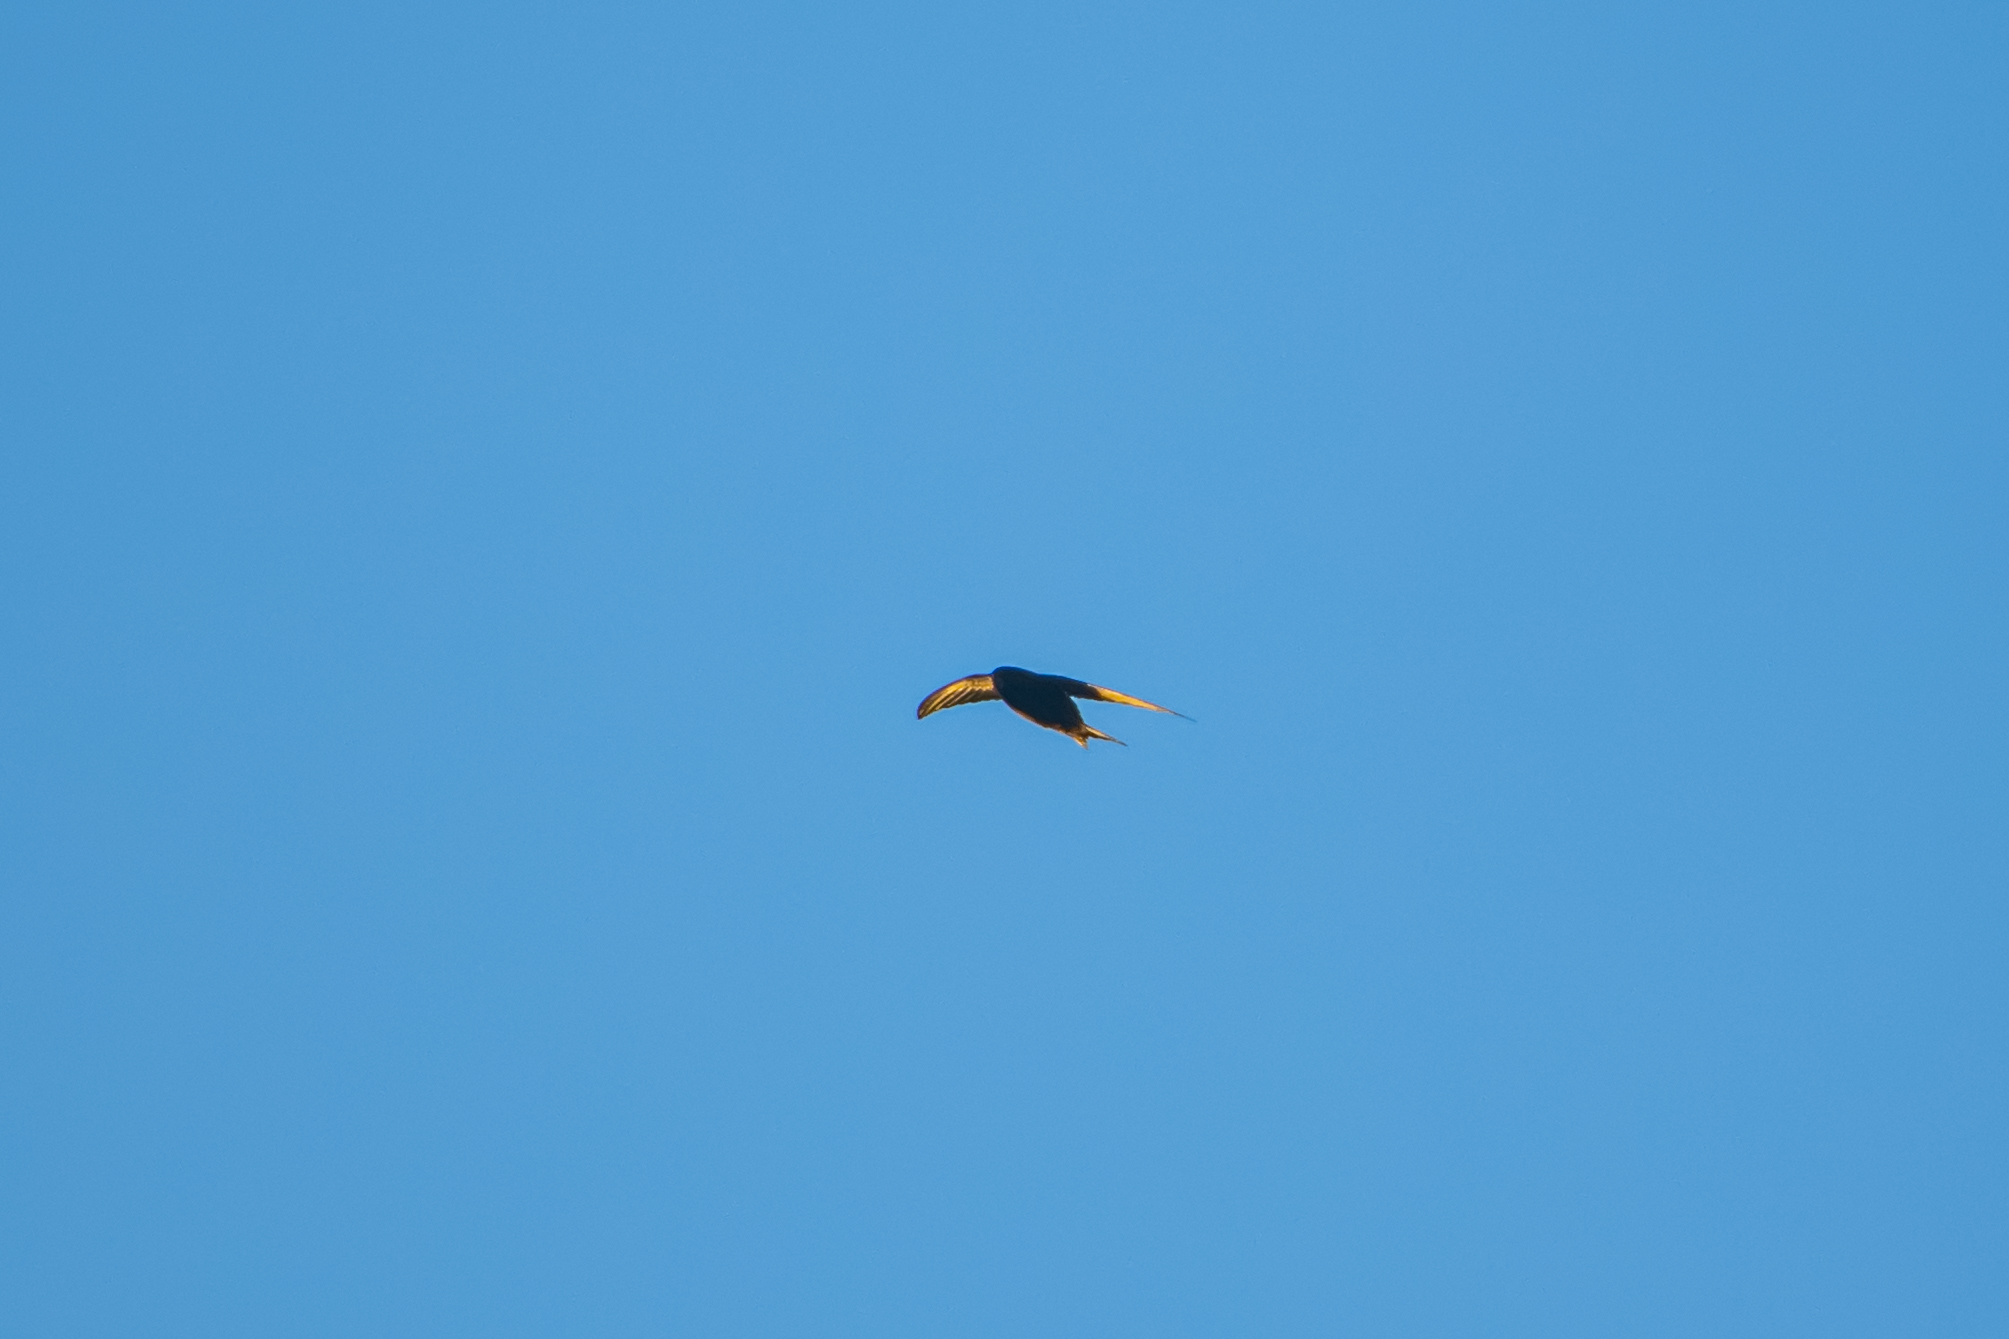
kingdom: Animalia
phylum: Chordata
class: Aves
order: Apodiformes
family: Apodidae
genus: Apus
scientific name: Apus apus
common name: Common swift
